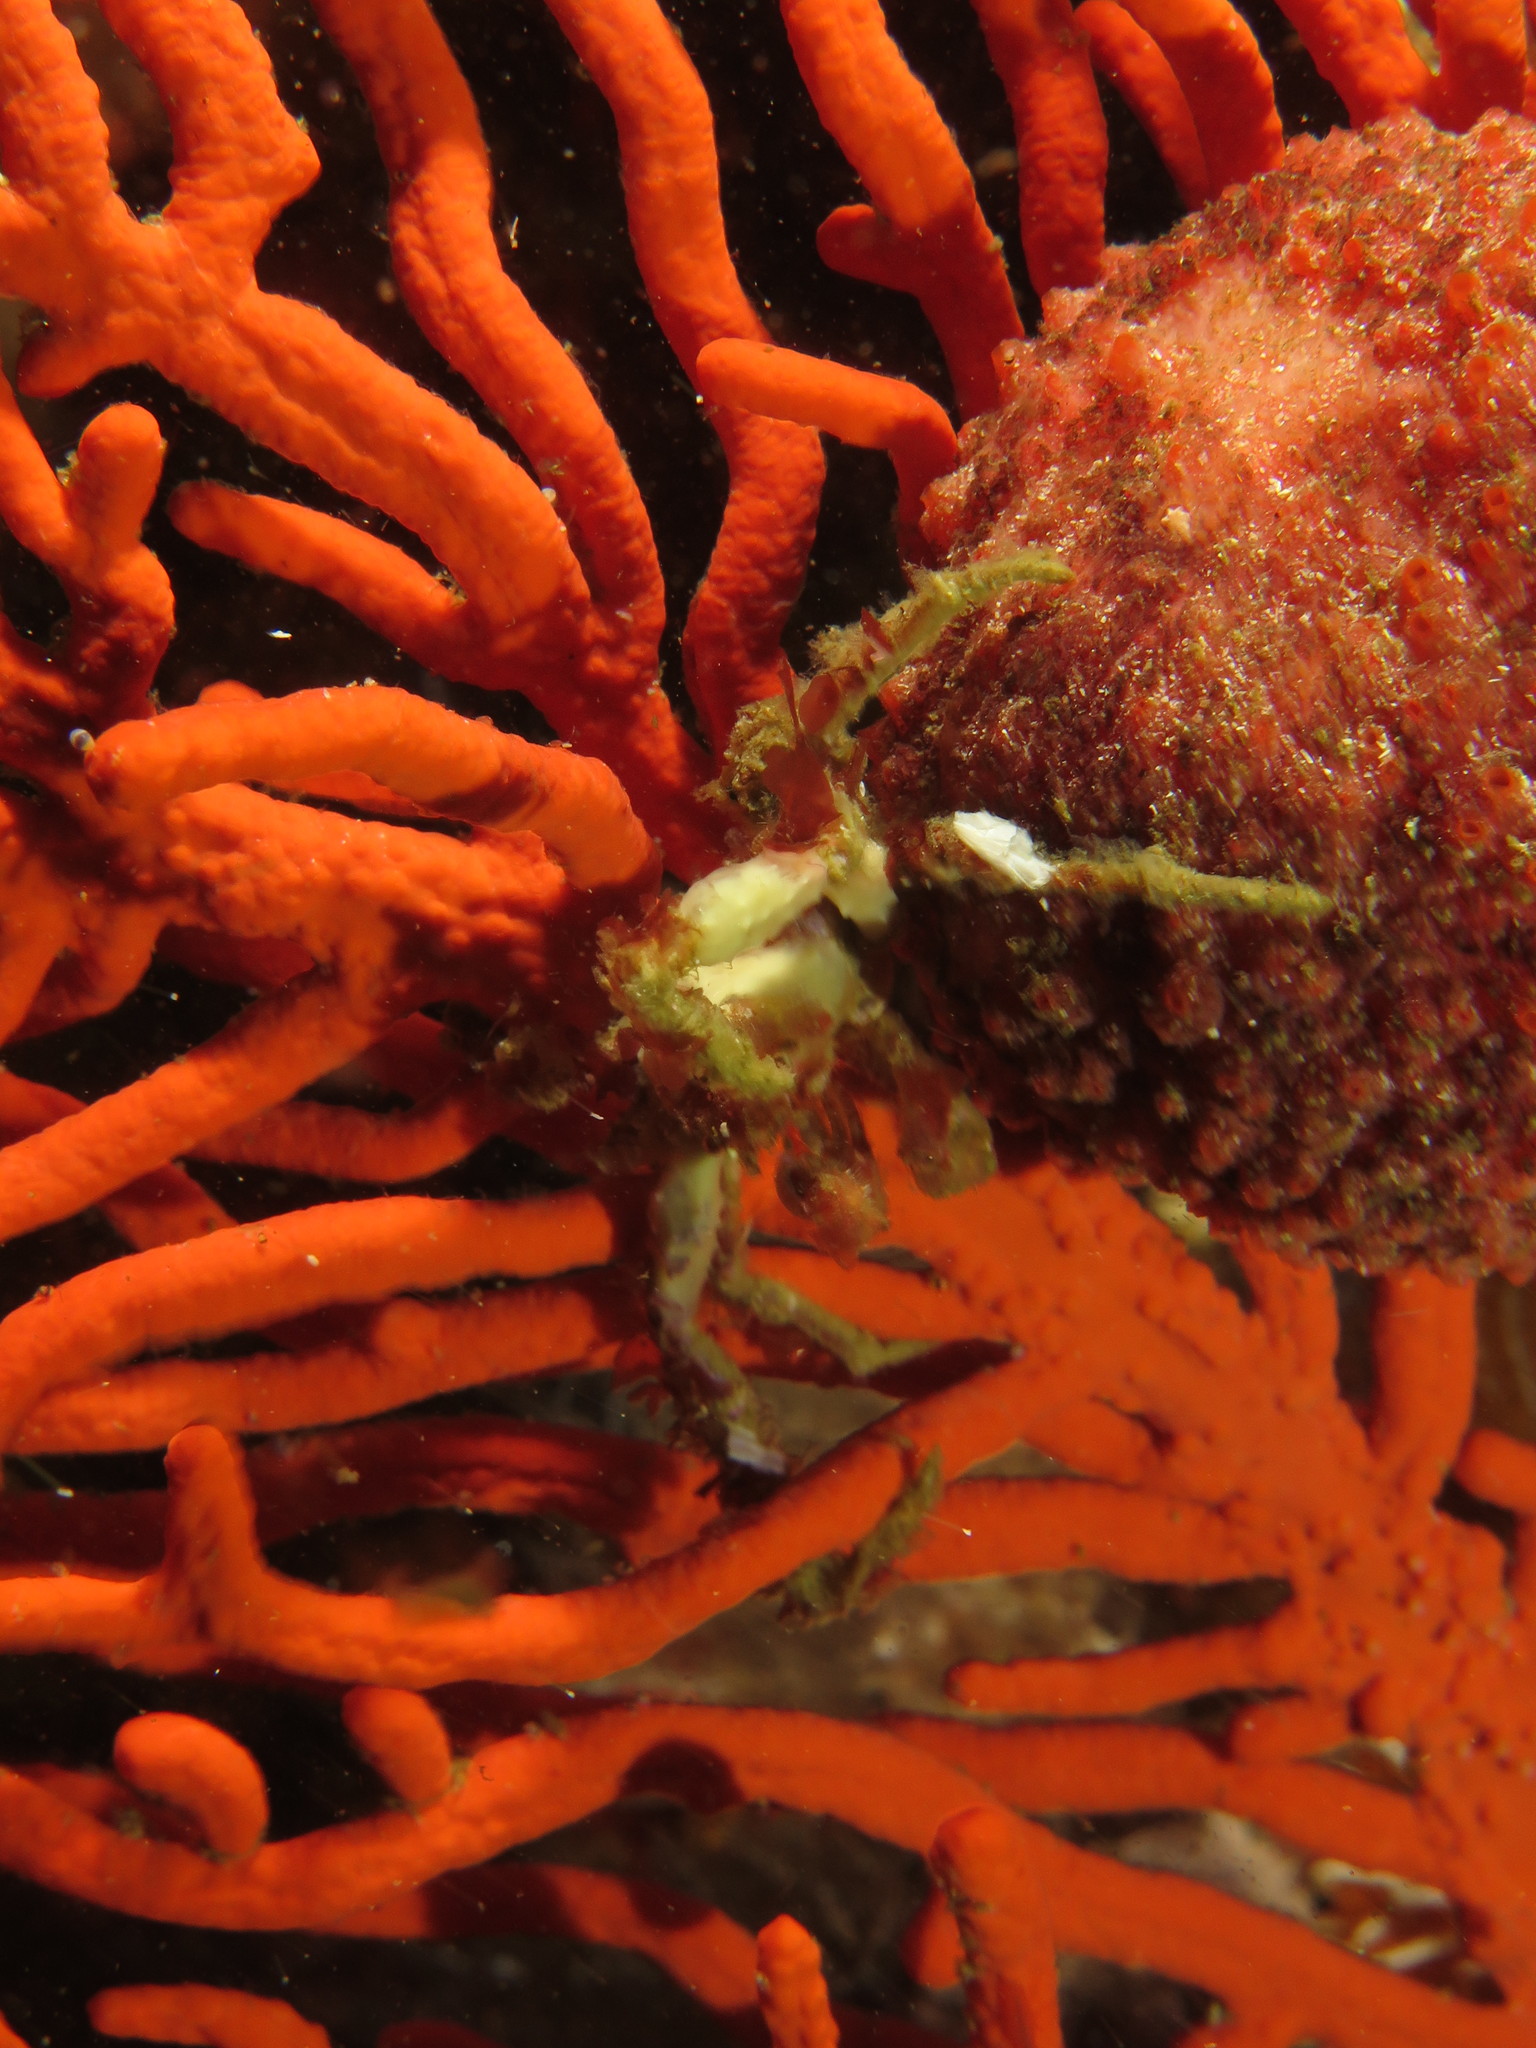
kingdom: Animalia
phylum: Arthropoda
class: Malacostraca
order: Decapoda
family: Inachidae
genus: Achaeopsis
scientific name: Achaeopsis spinulosa
